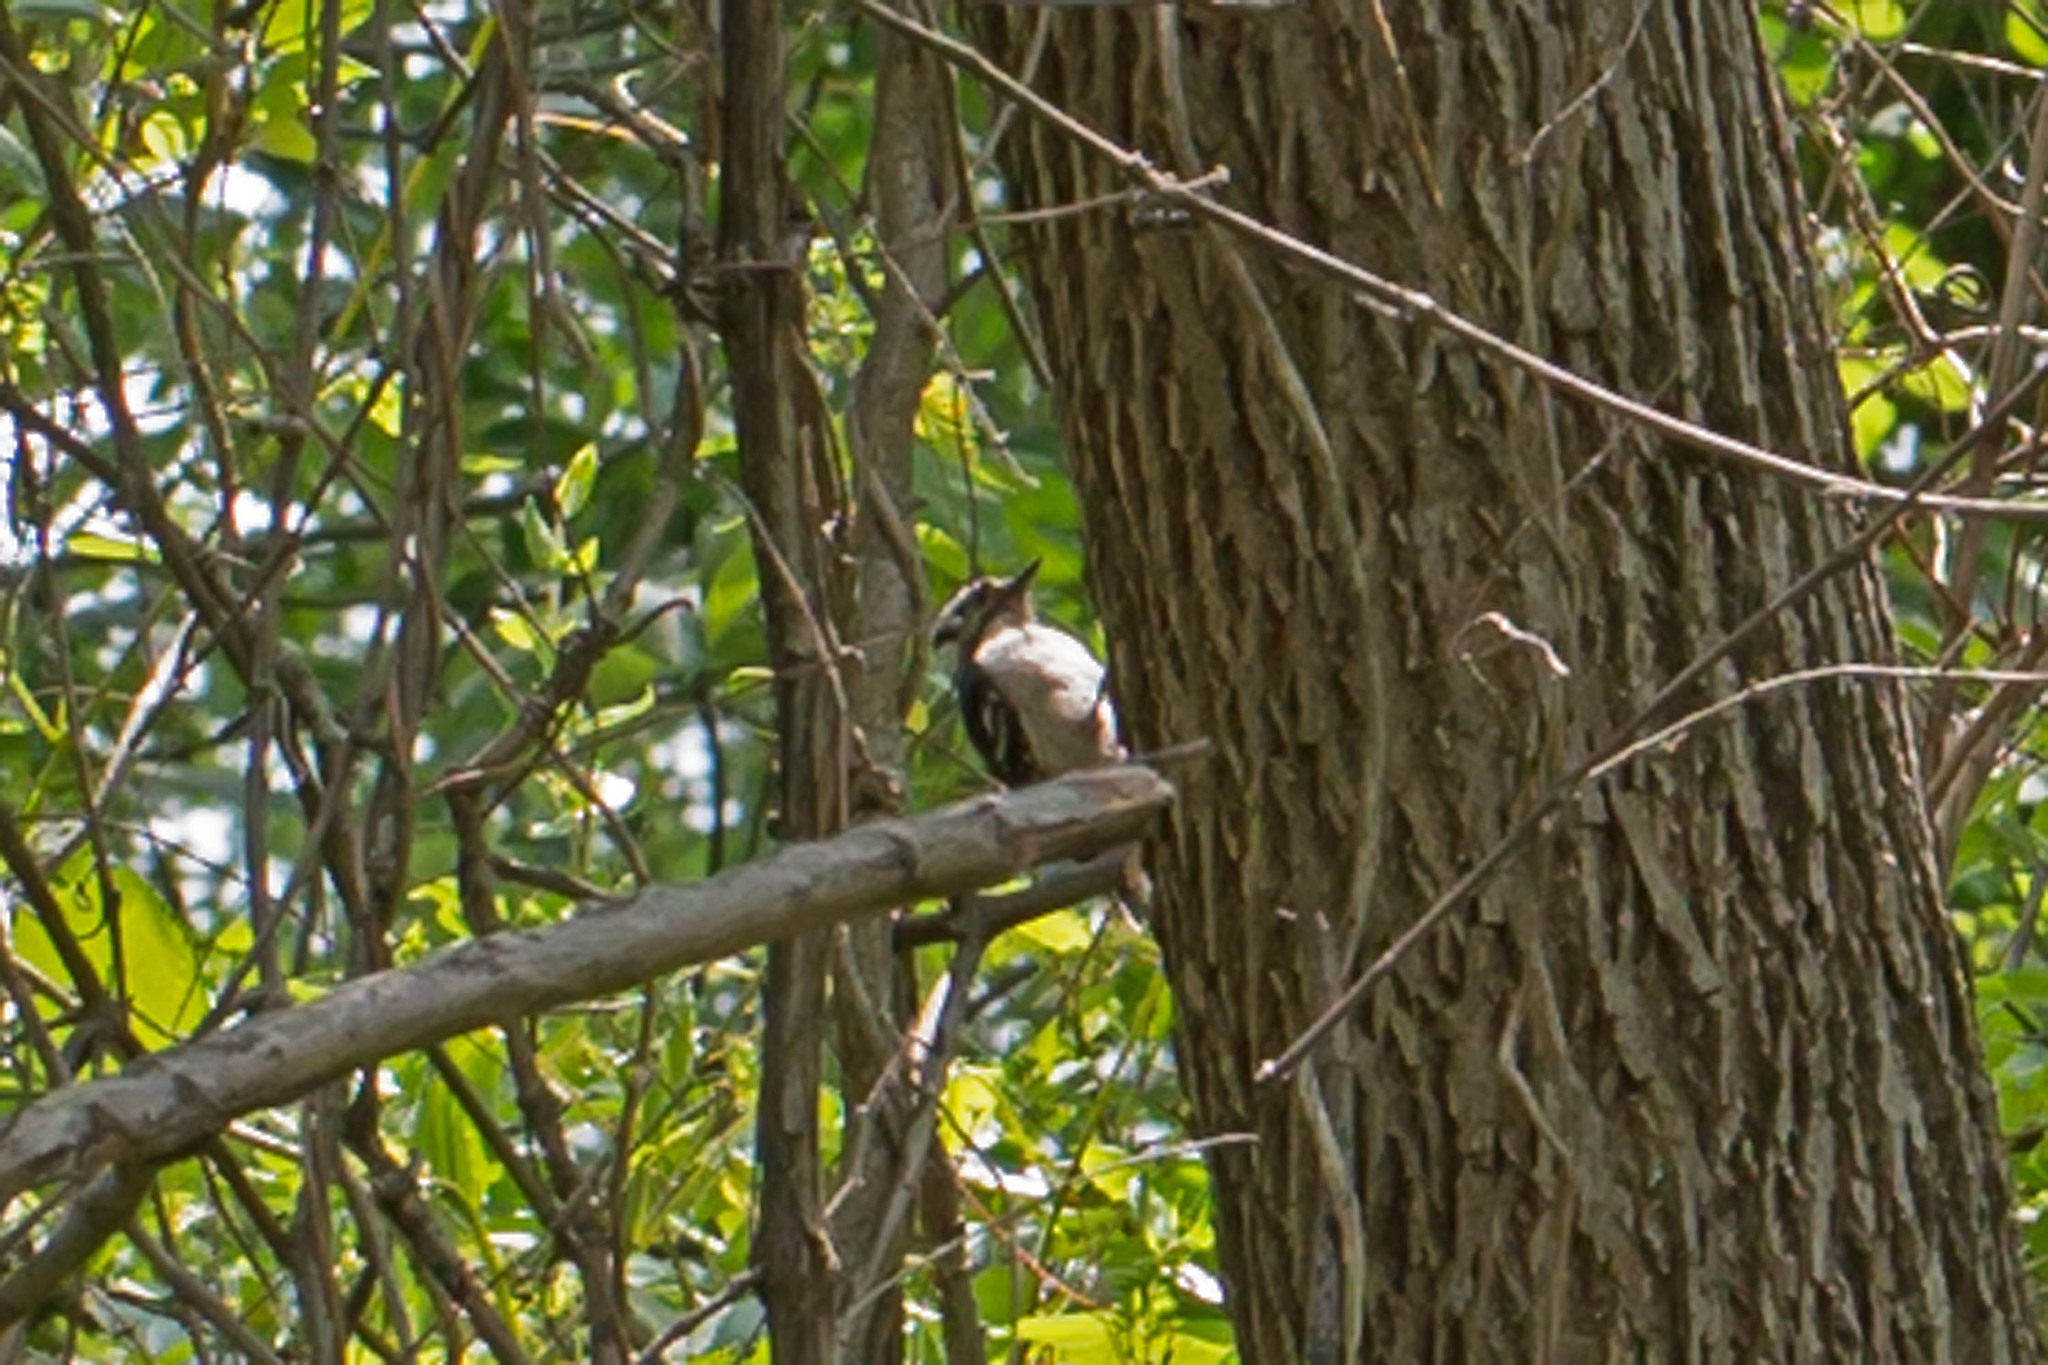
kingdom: Animalia
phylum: Chordata
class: Aves
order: Piciformes
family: Picidae
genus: Dryobates
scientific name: Dryobates pubescens
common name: Downy woodpecker
